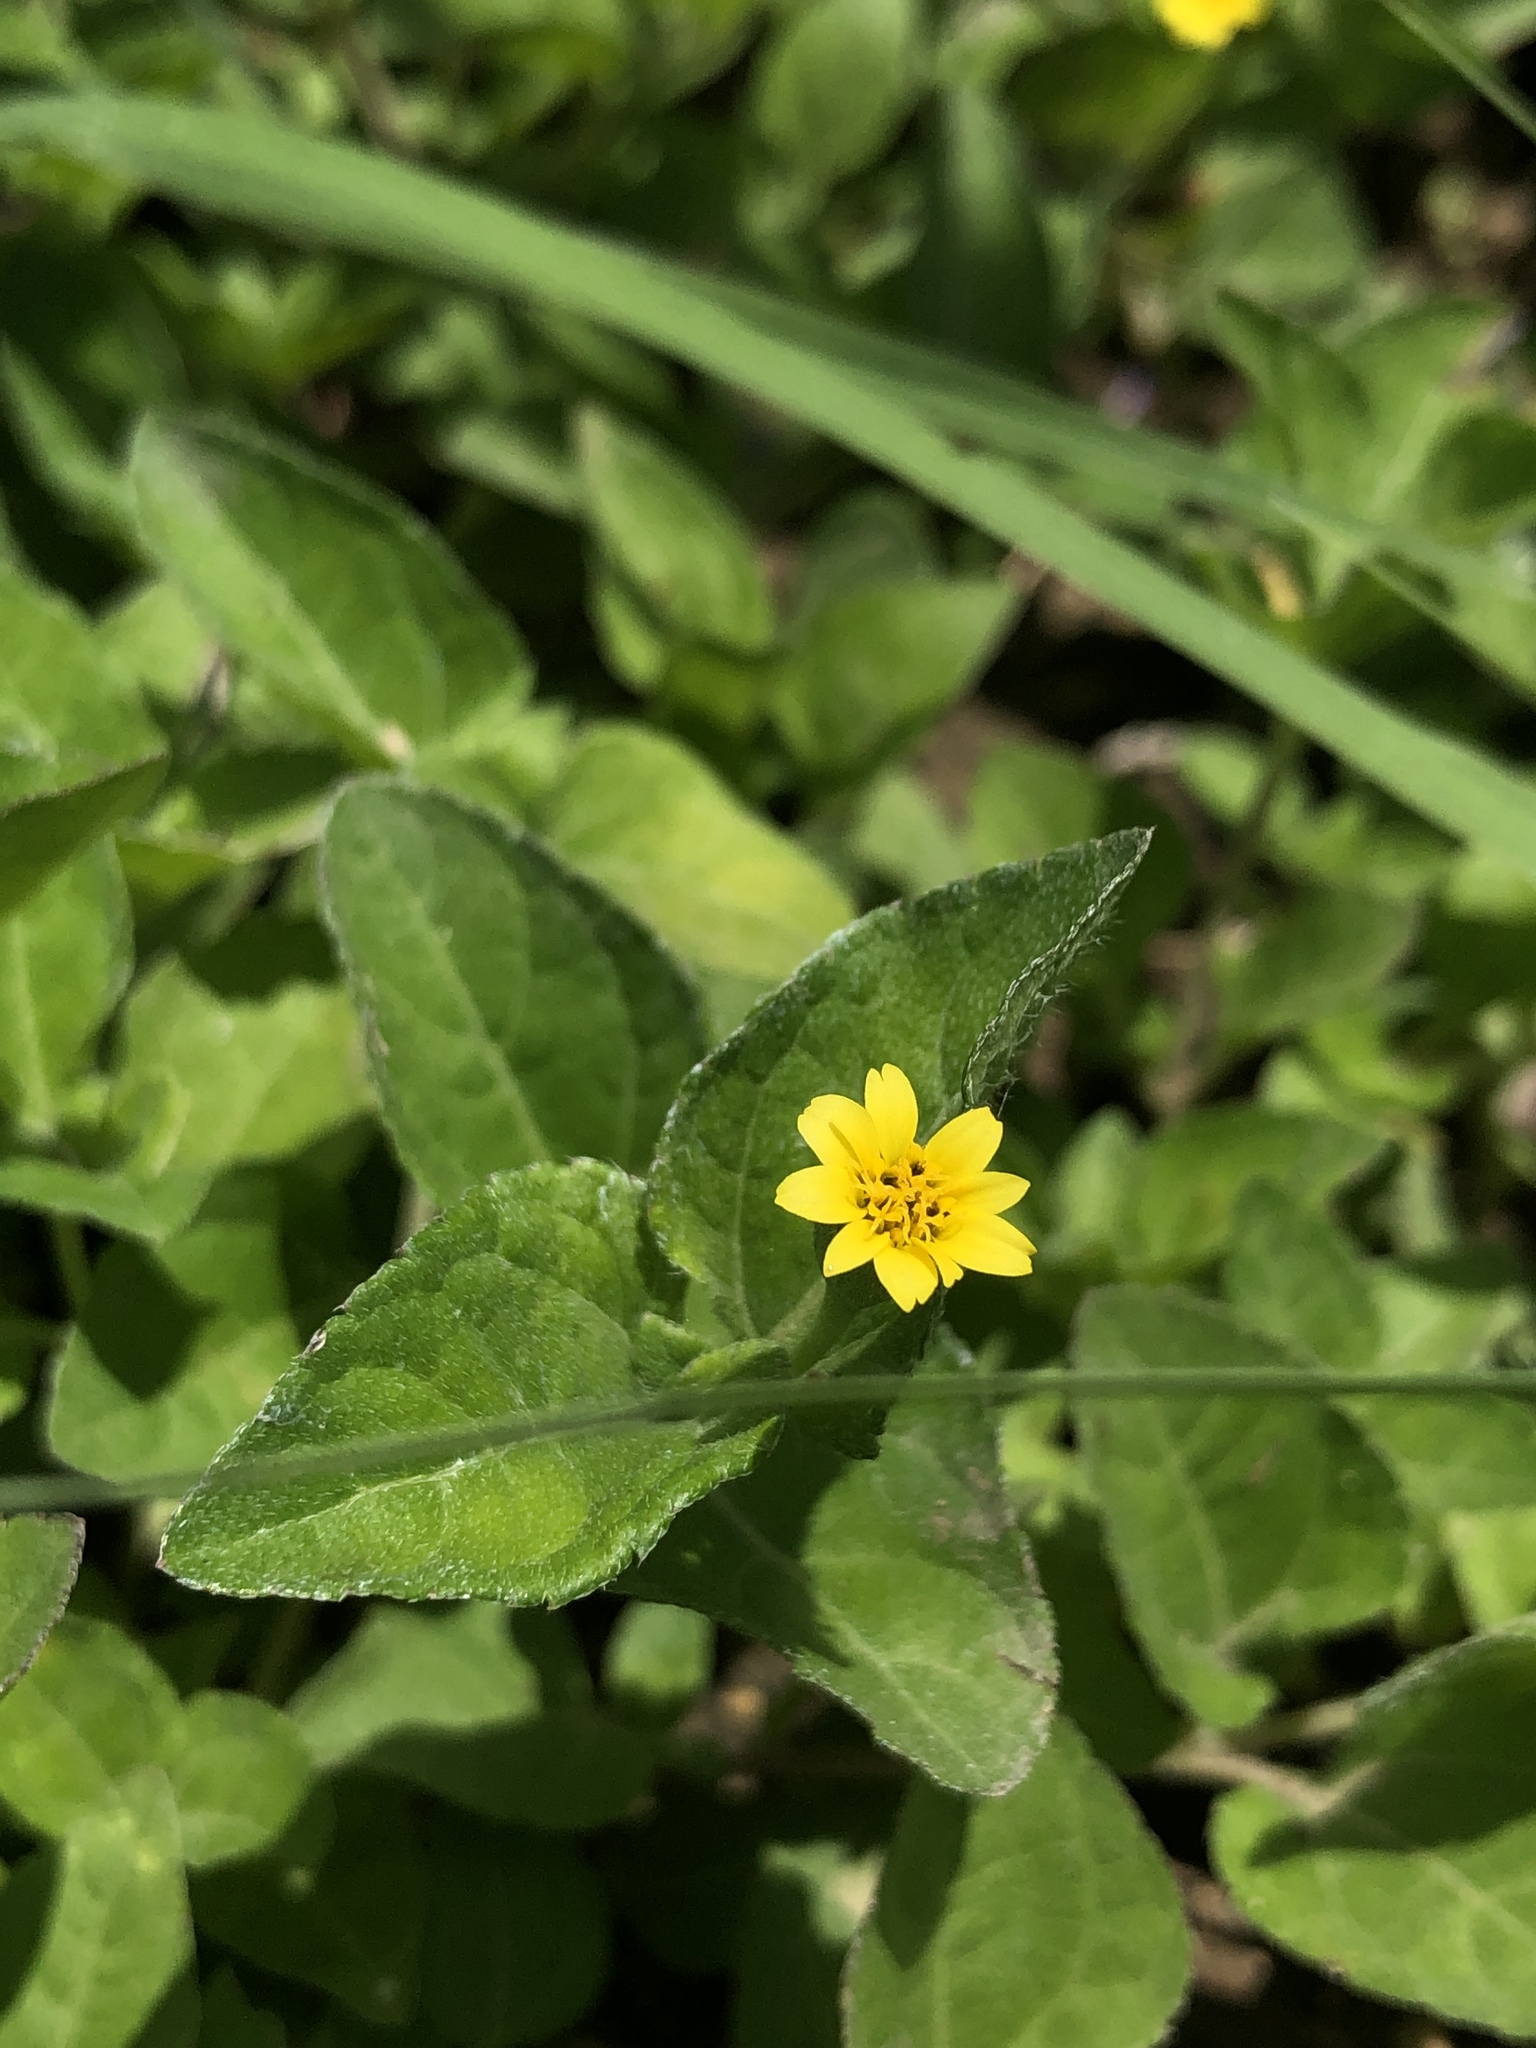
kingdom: Plantae
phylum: Tracheophyta
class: Magnoliopsida
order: Asterales
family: Asteraceae
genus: Calyptocarpus
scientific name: Calyptocarpus vialis
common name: Straggler daisy
